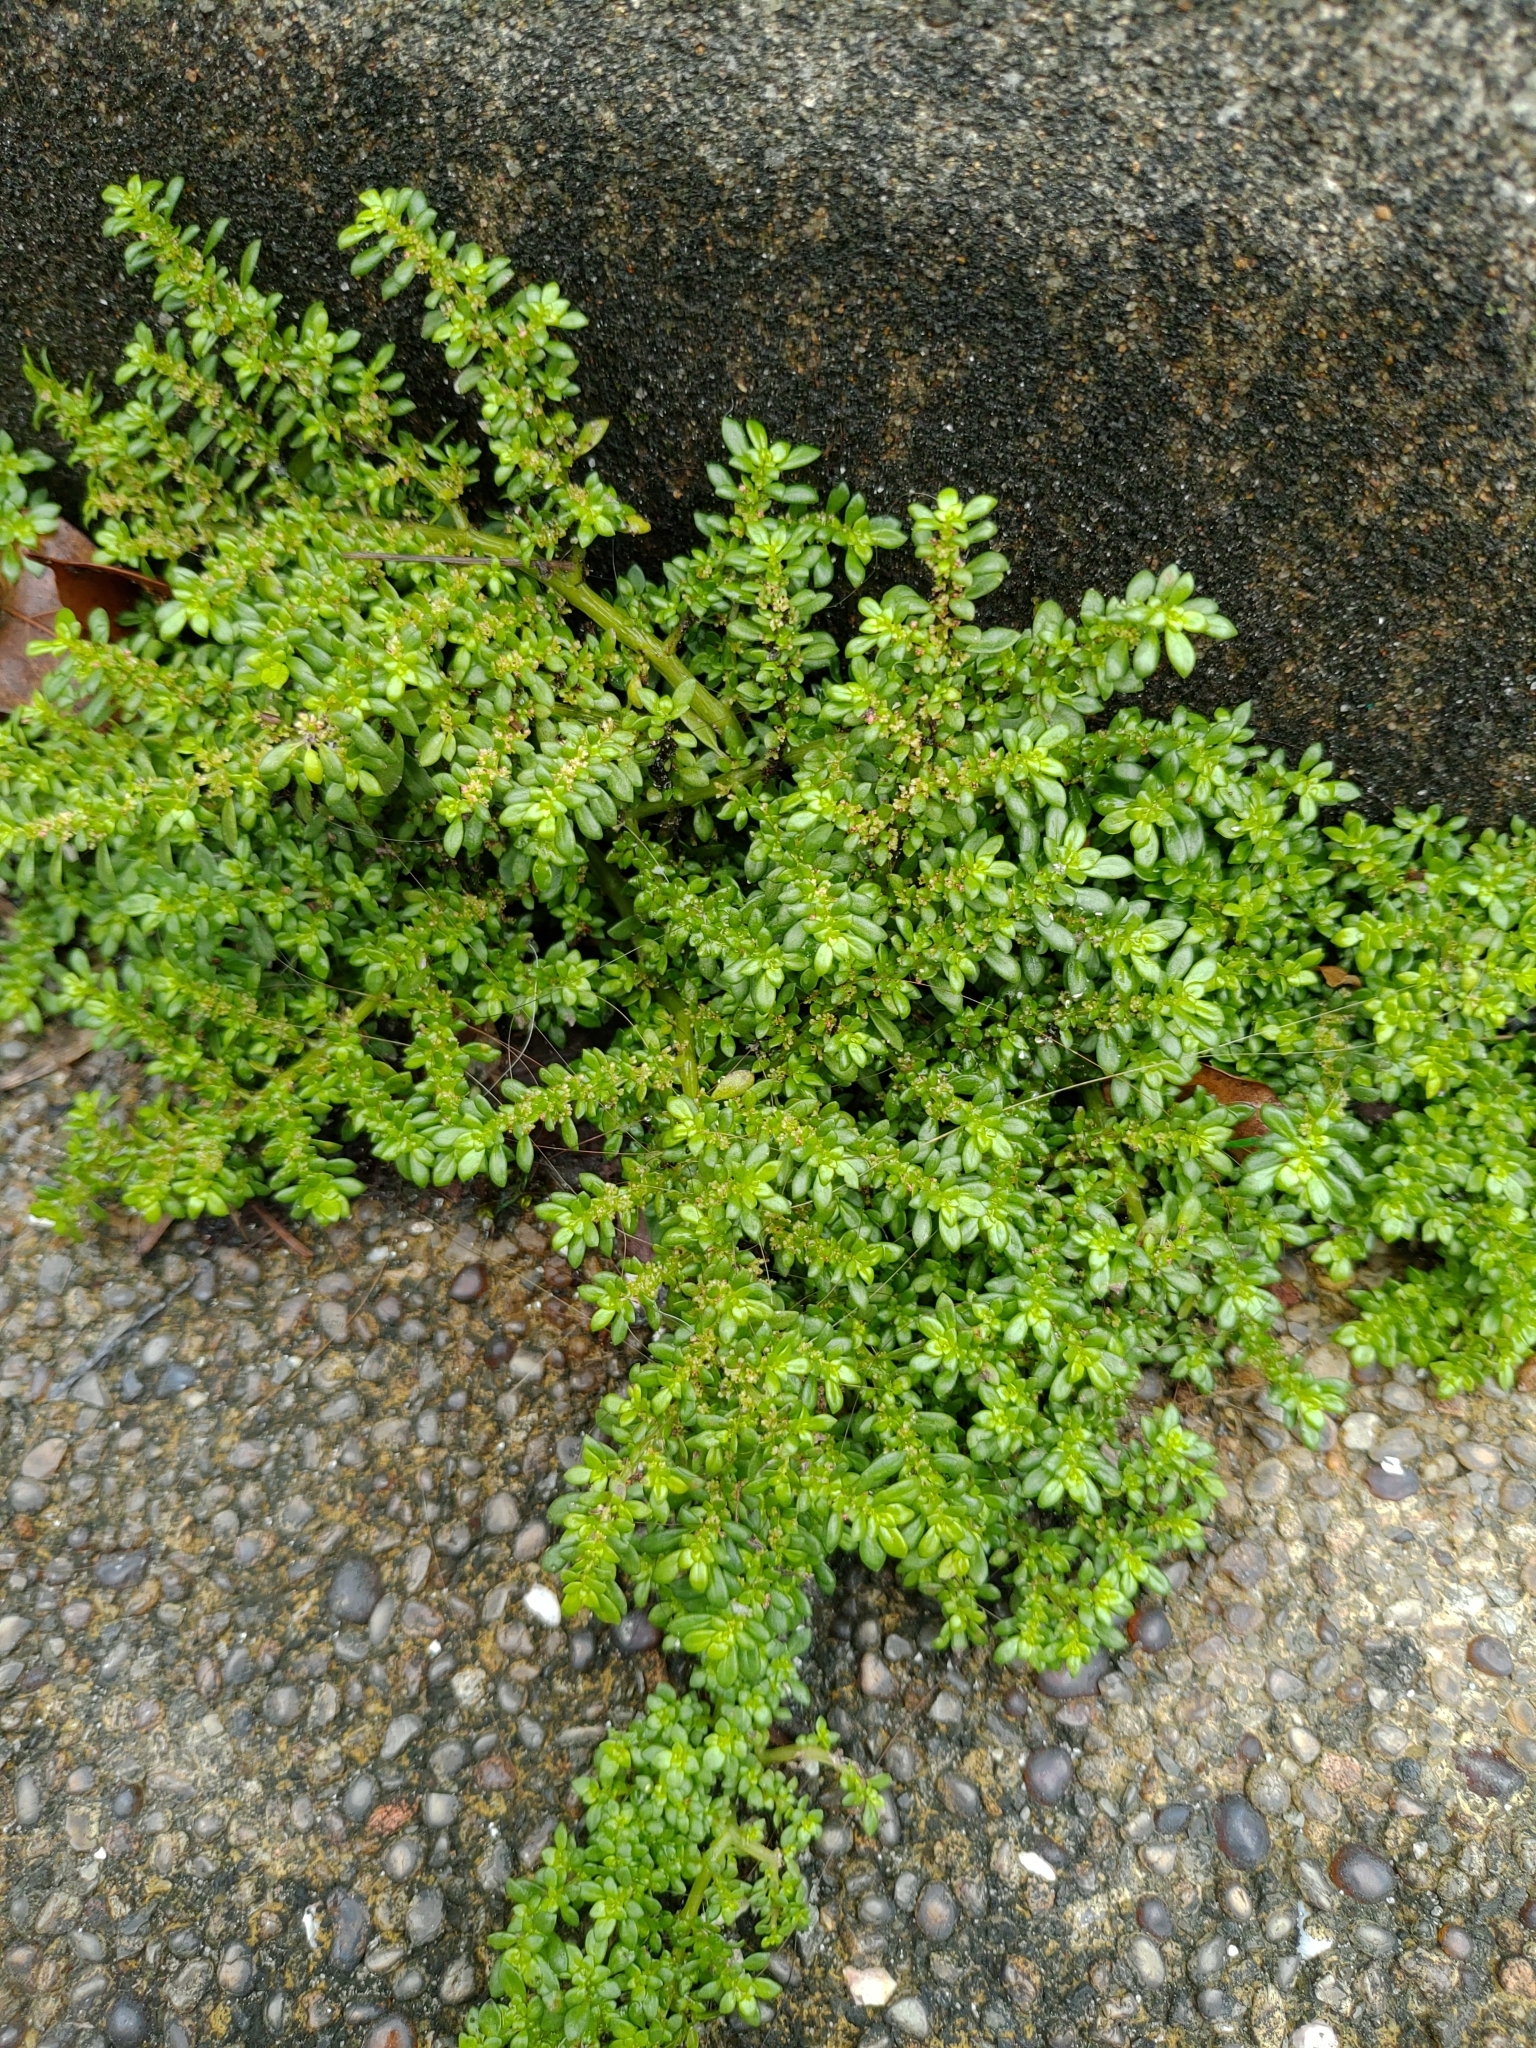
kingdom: Plantae
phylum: Tracheophyta
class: Magnoliopsida
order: Rosales
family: Urticaceae
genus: Pilea
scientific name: Pilea microphylla
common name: Artillery-plant
